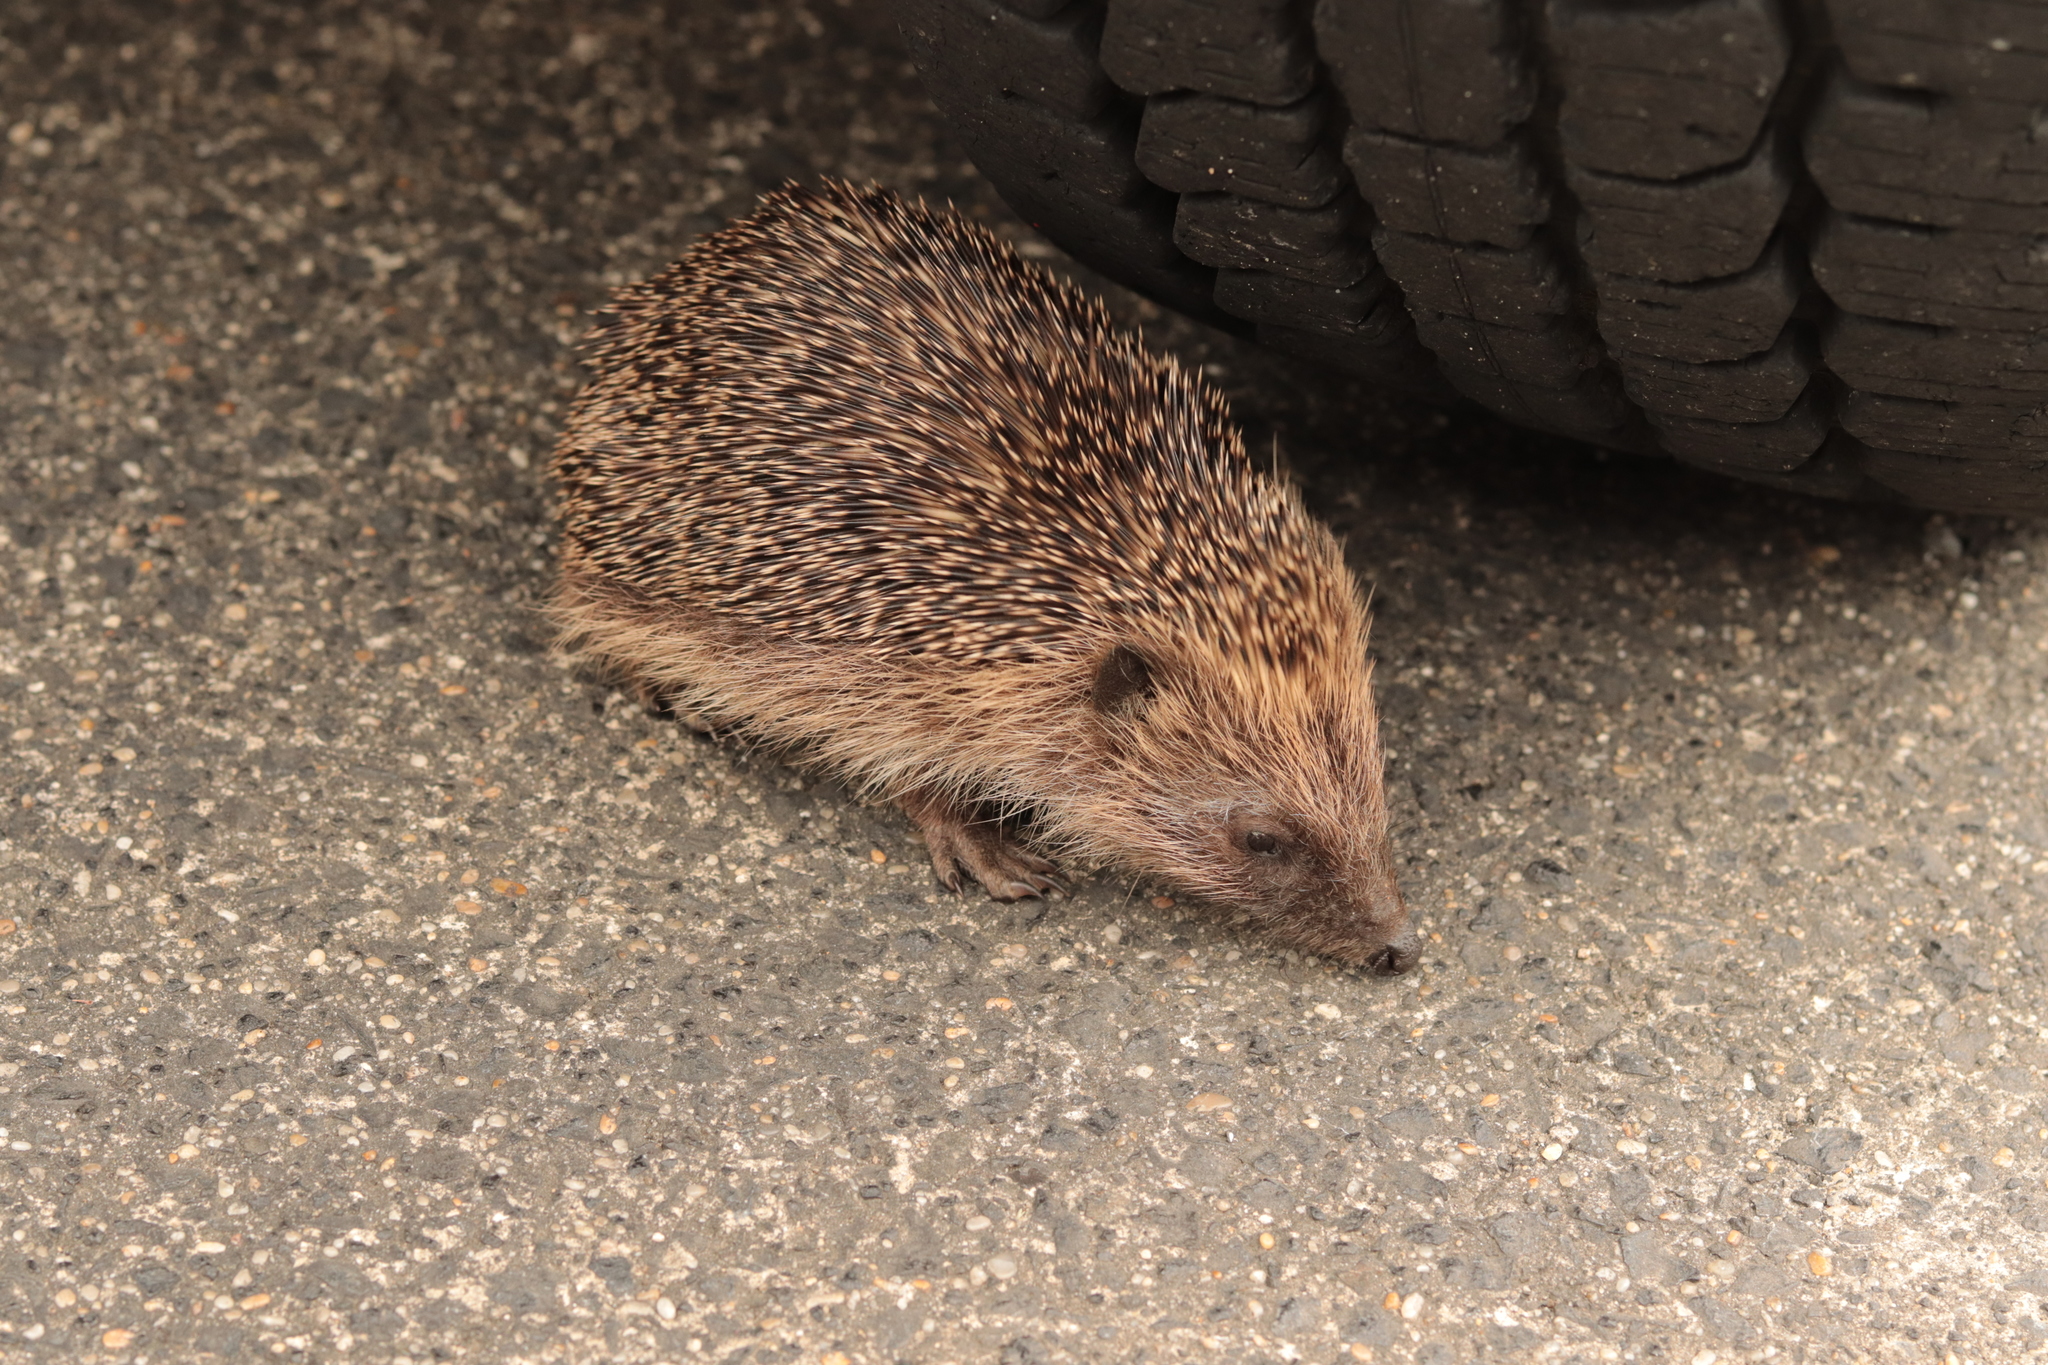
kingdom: Animalia
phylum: Chordata
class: Mammalia
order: Erinaceomorpha
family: Erinaceidae
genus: Erinaceus
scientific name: Erinaceus europaeus
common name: West european hedgehog
